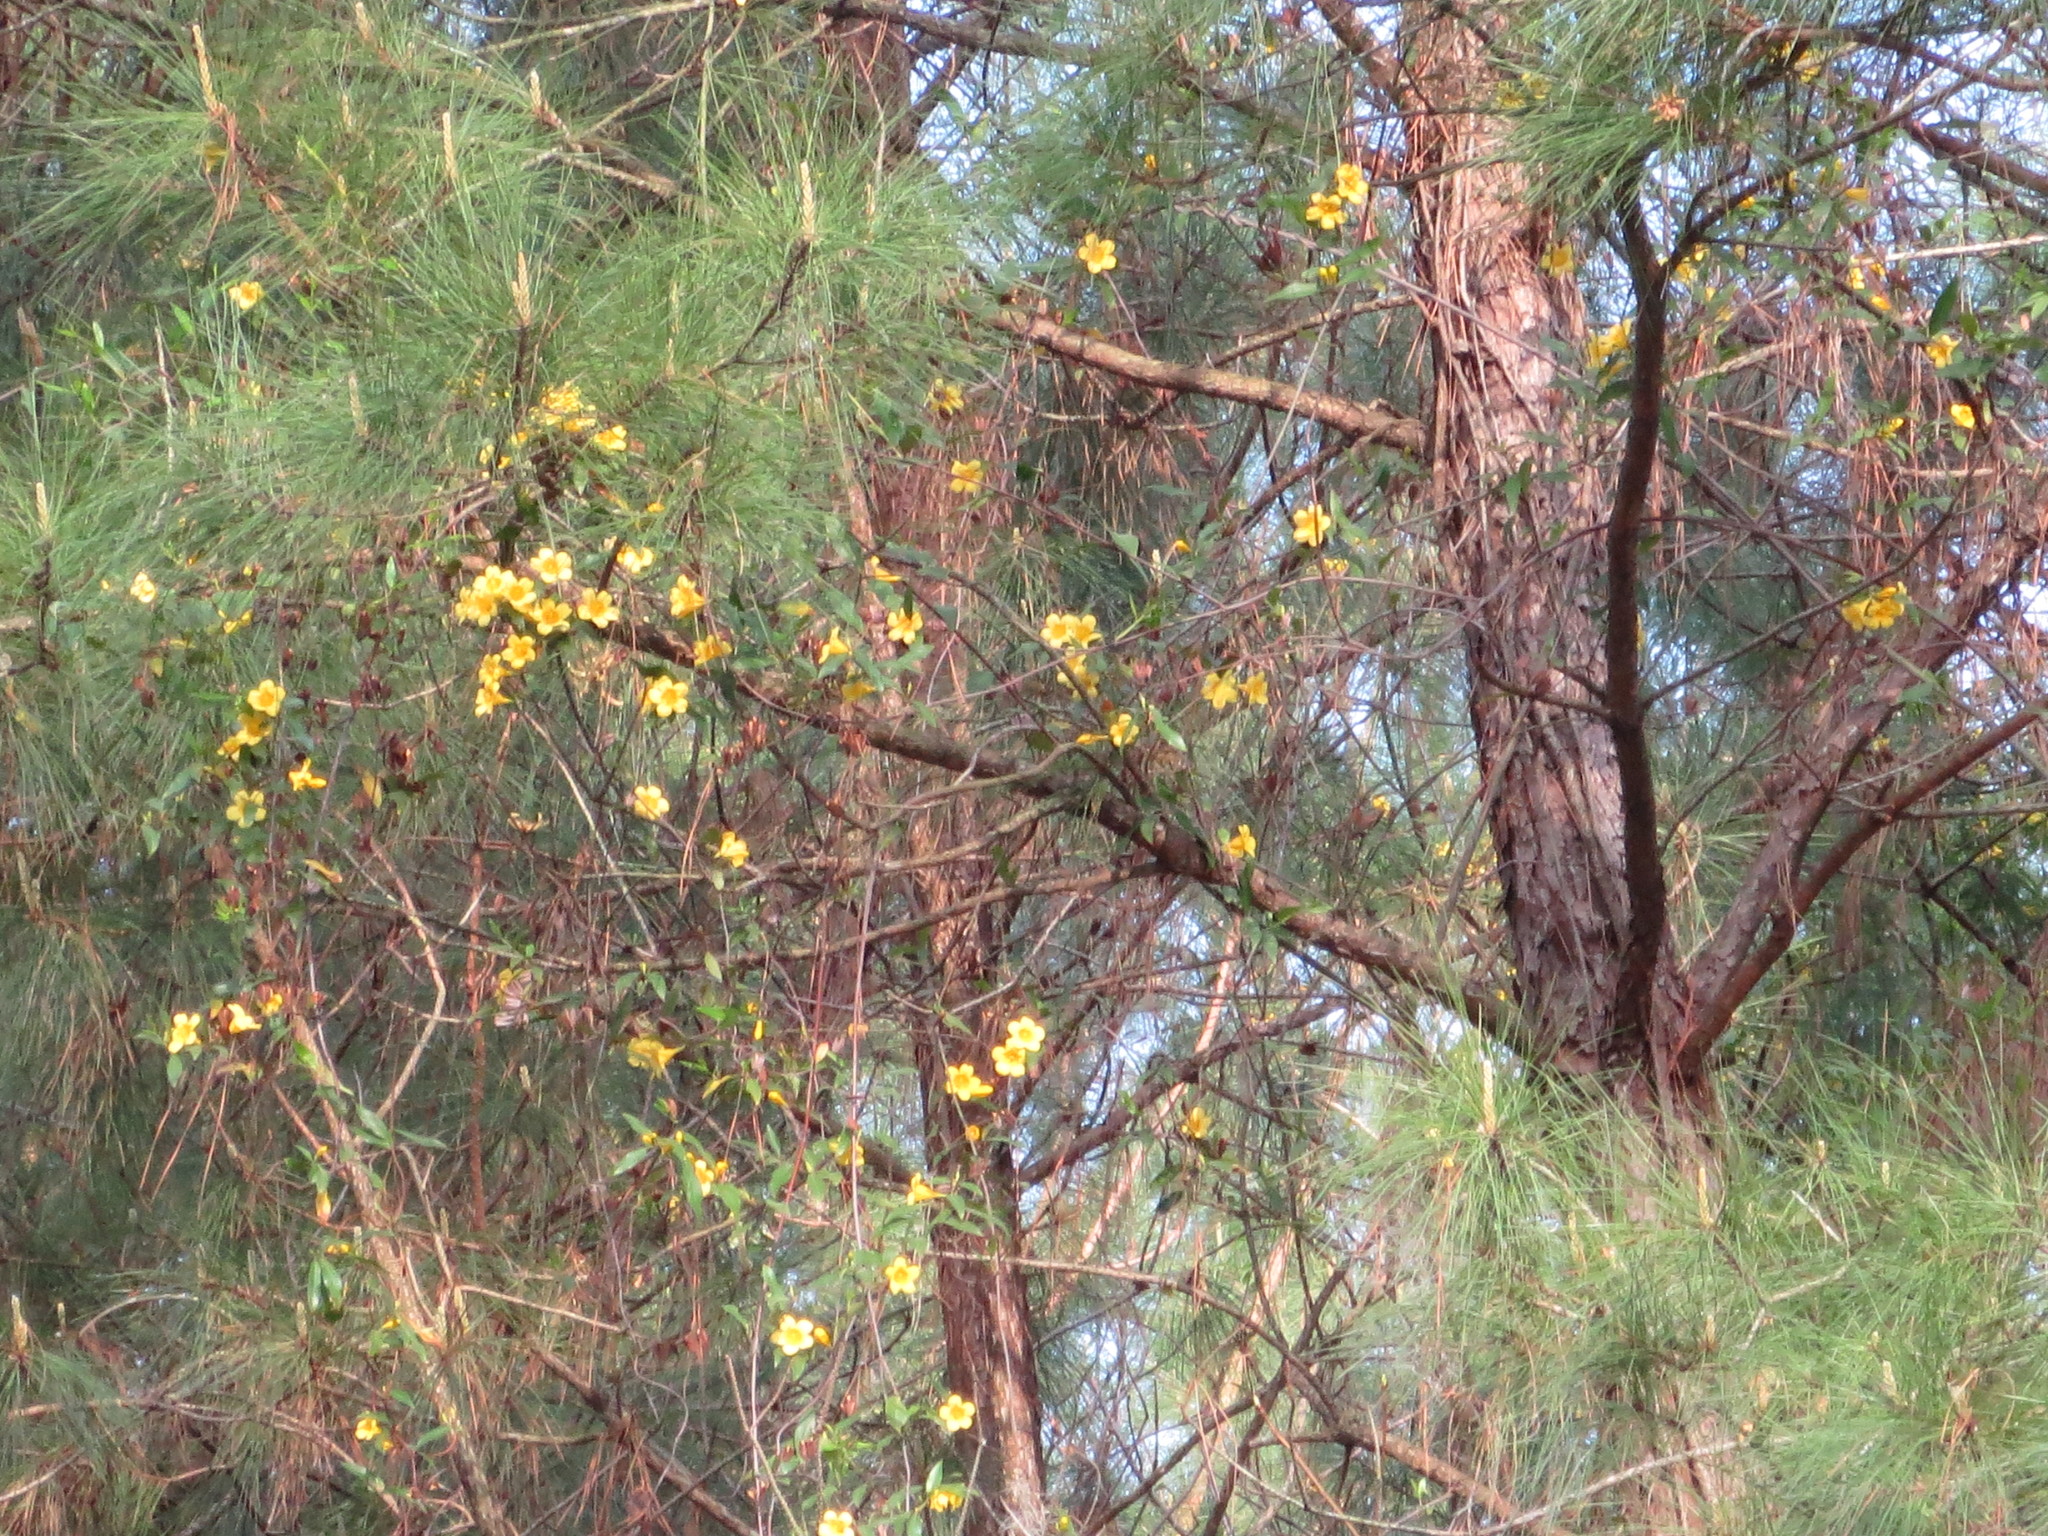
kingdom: Plantae
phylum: Tracheophyta
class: Magnoliopsida
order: Gentianales
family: Gelsemiaceae
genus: Gelsemium
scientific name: Gelsemium sempervirens
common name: Carolina-jasmine
